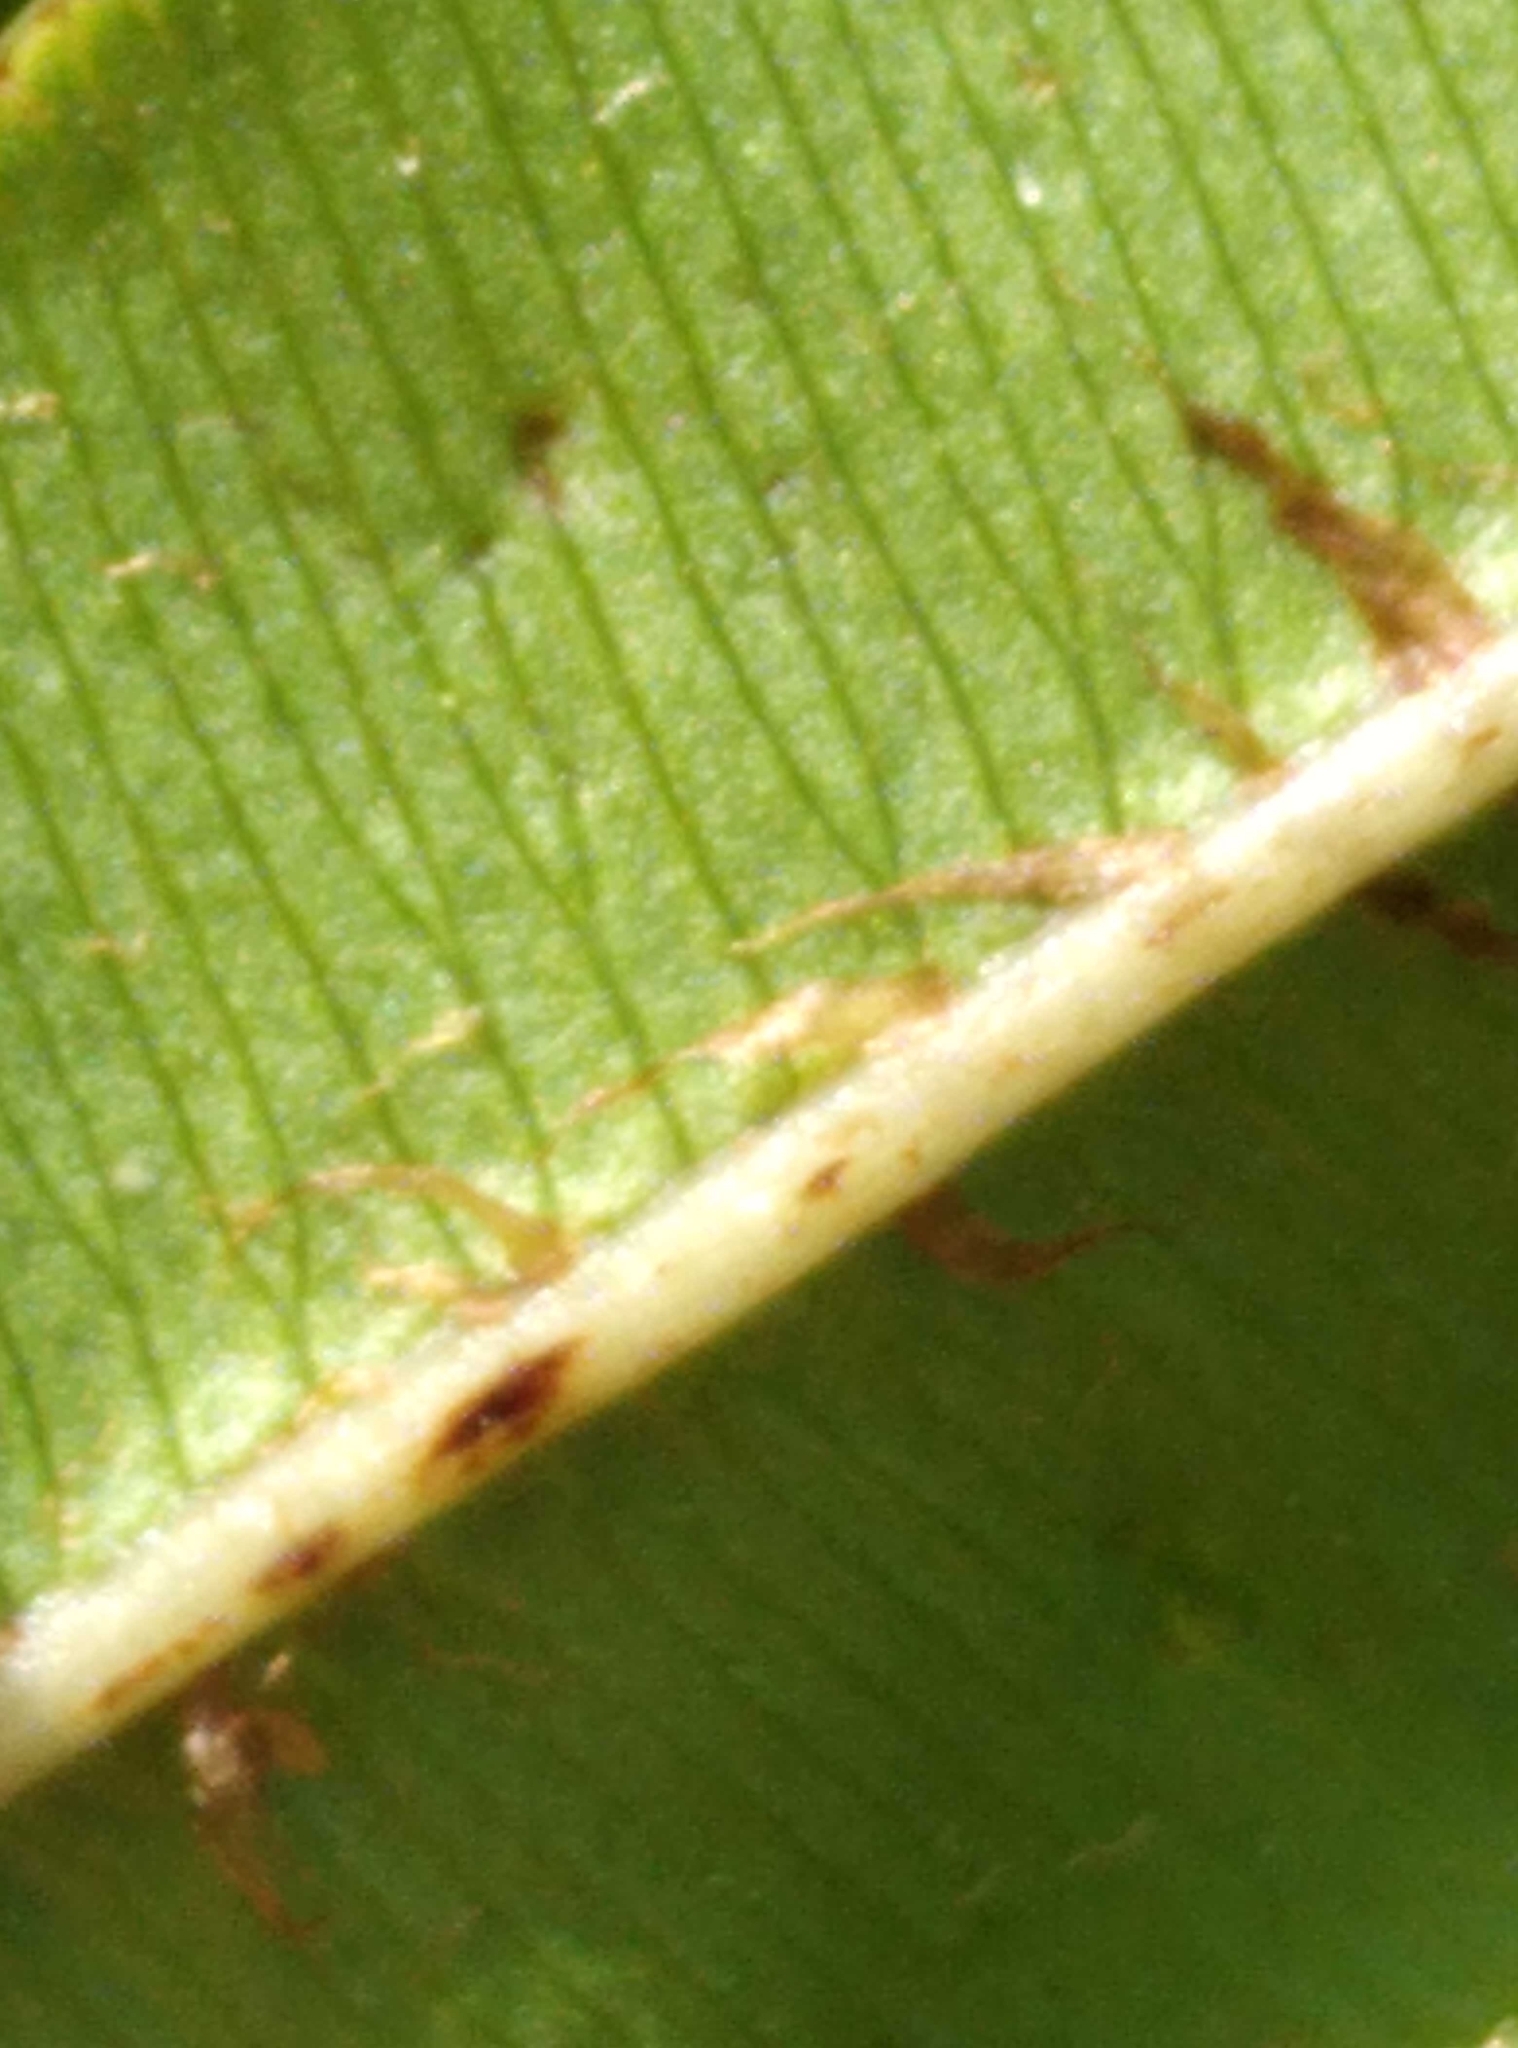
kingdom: Plantae
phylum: Tracheophyta
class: Polypodiopsida
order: Polypodiales
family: Blechnaceae
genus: Parablechnum
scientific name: Parablechnum minus
